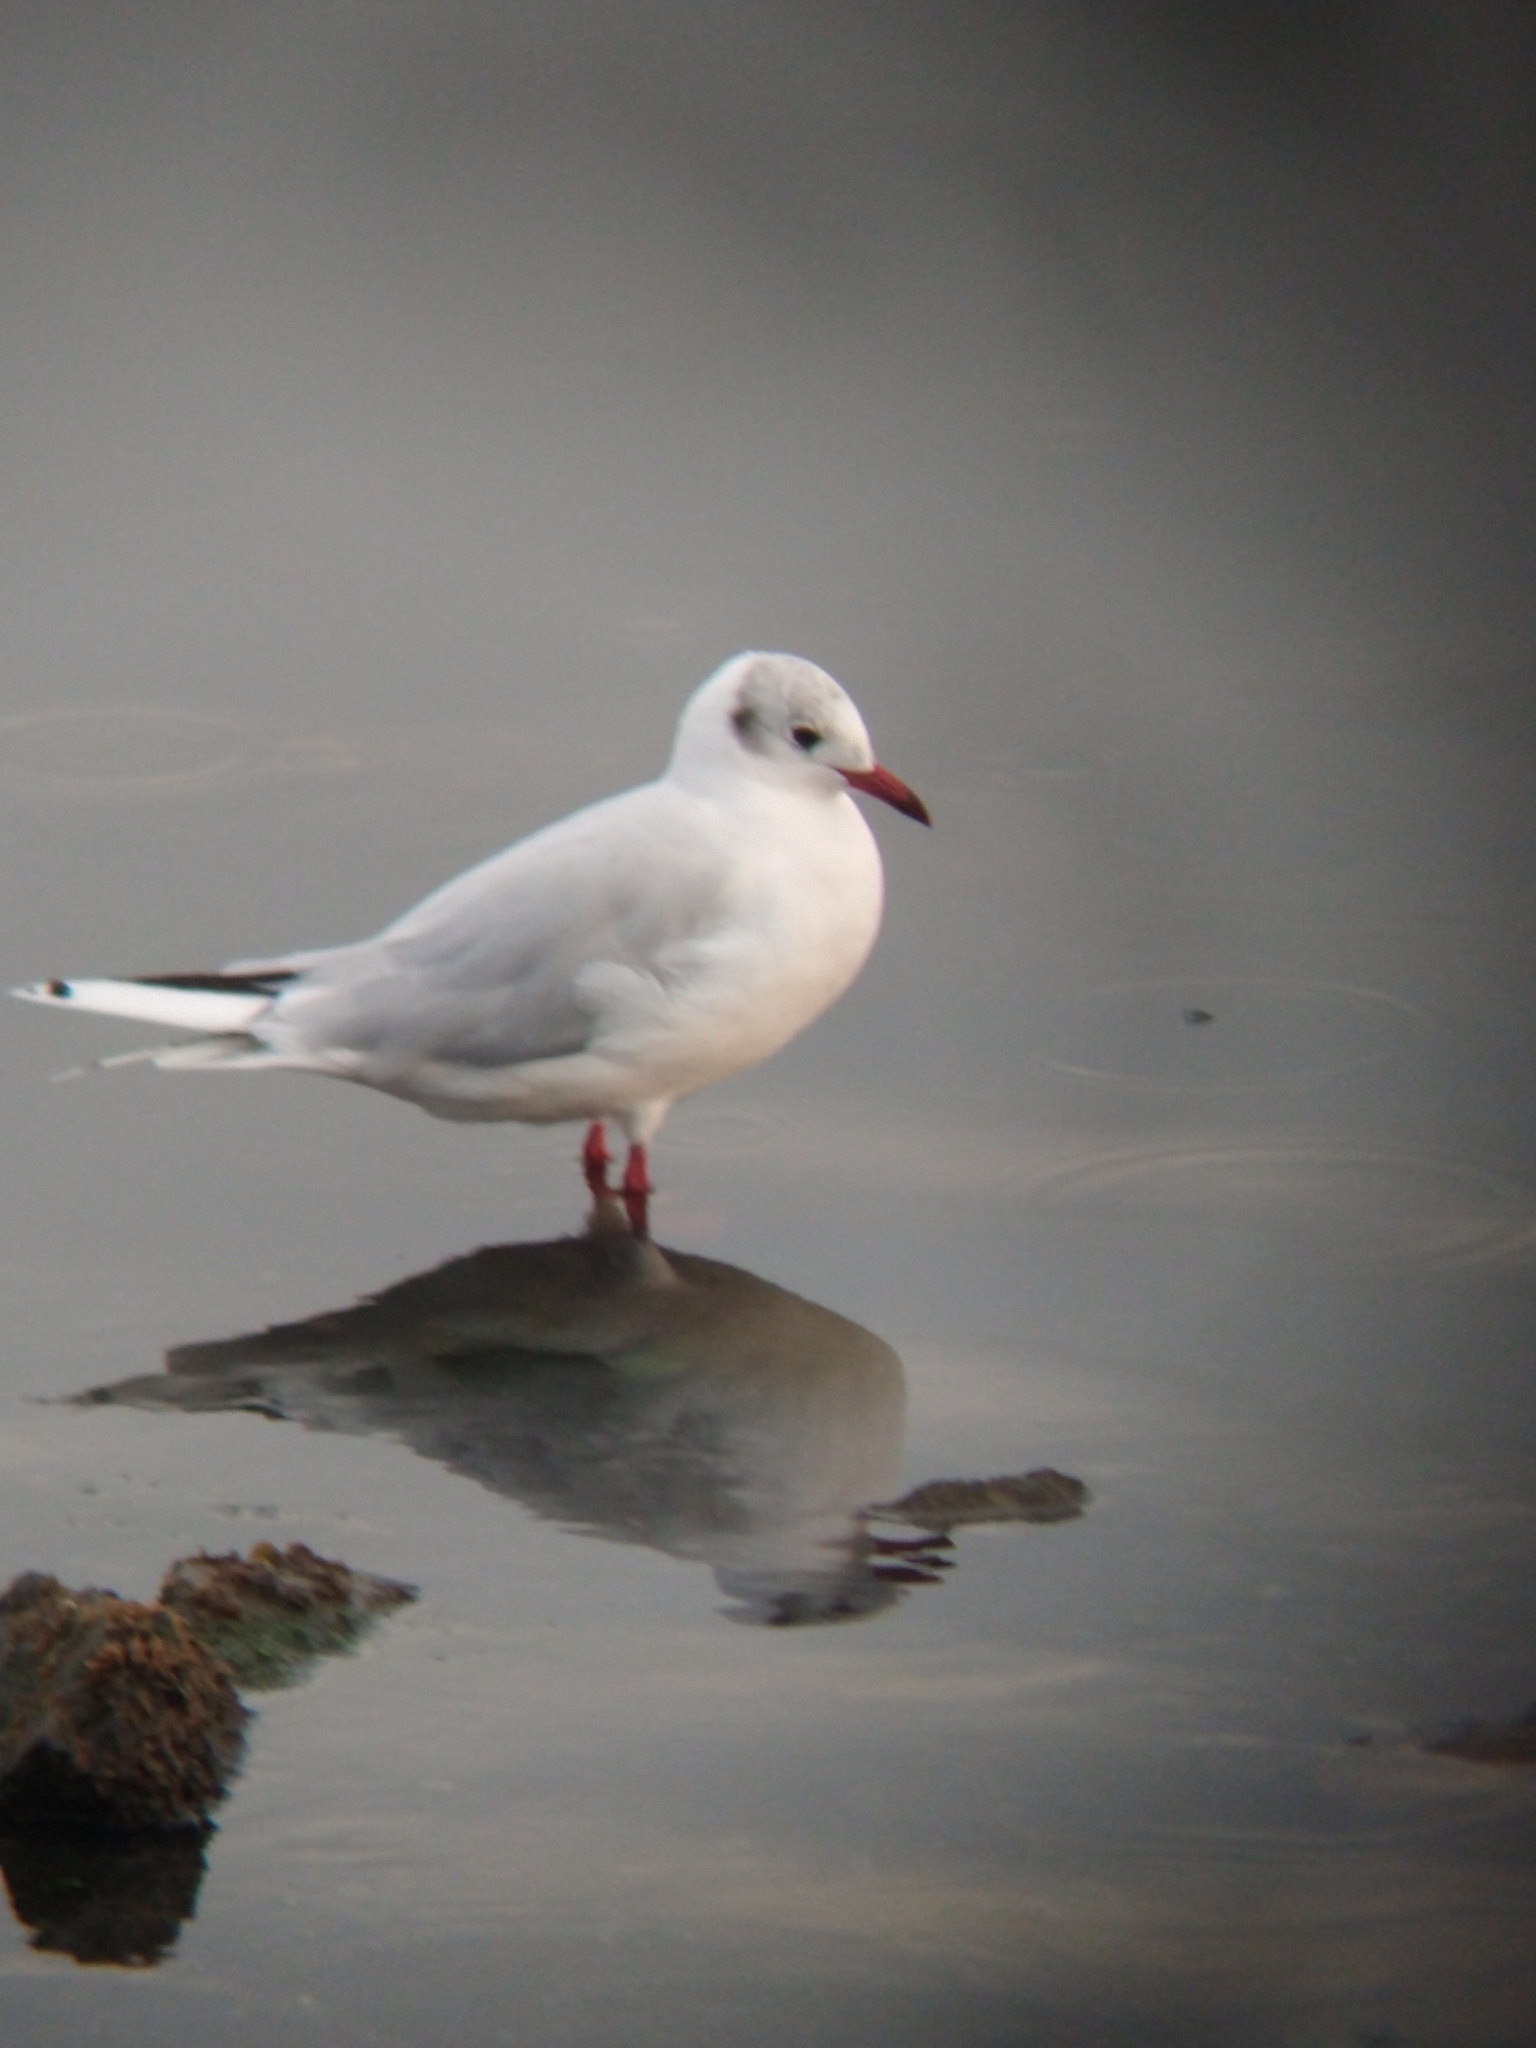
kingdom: Animalia
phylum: Chordata
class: Aves
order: Charadriiformes
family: Laridae
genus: Chroicocephalus
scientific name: Chroicocephalus maculipennis
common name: Brown-hooded gull
